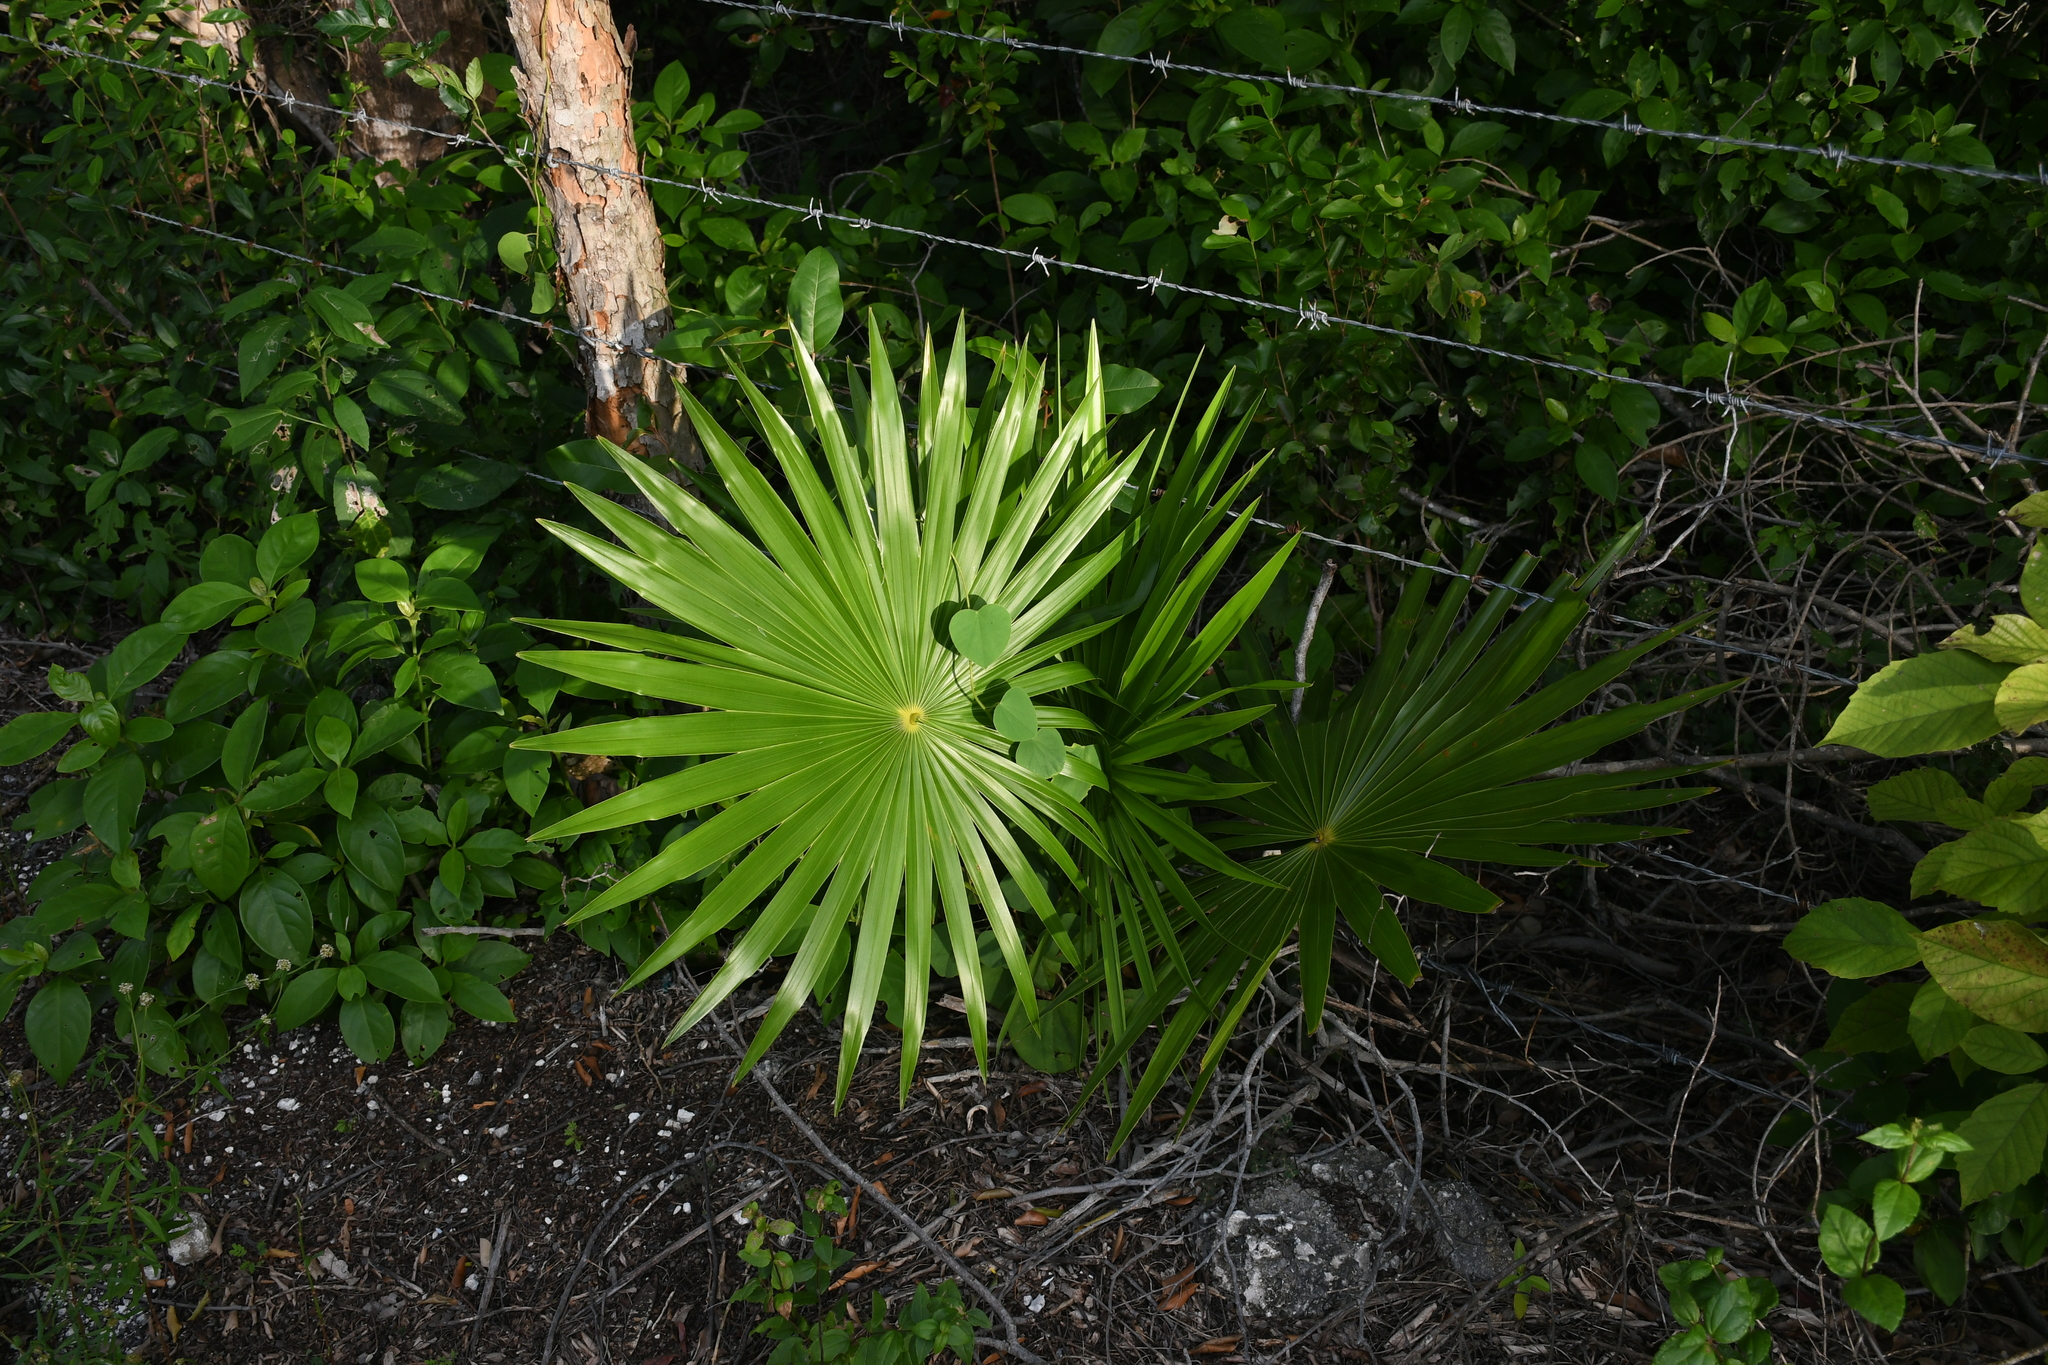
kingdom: Plantae
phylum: Tracheophyta
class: Liliopsida
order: Arecales
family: Arecaceae
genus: Thrinax
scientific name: Thrinax radiata
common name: Florida thatch
